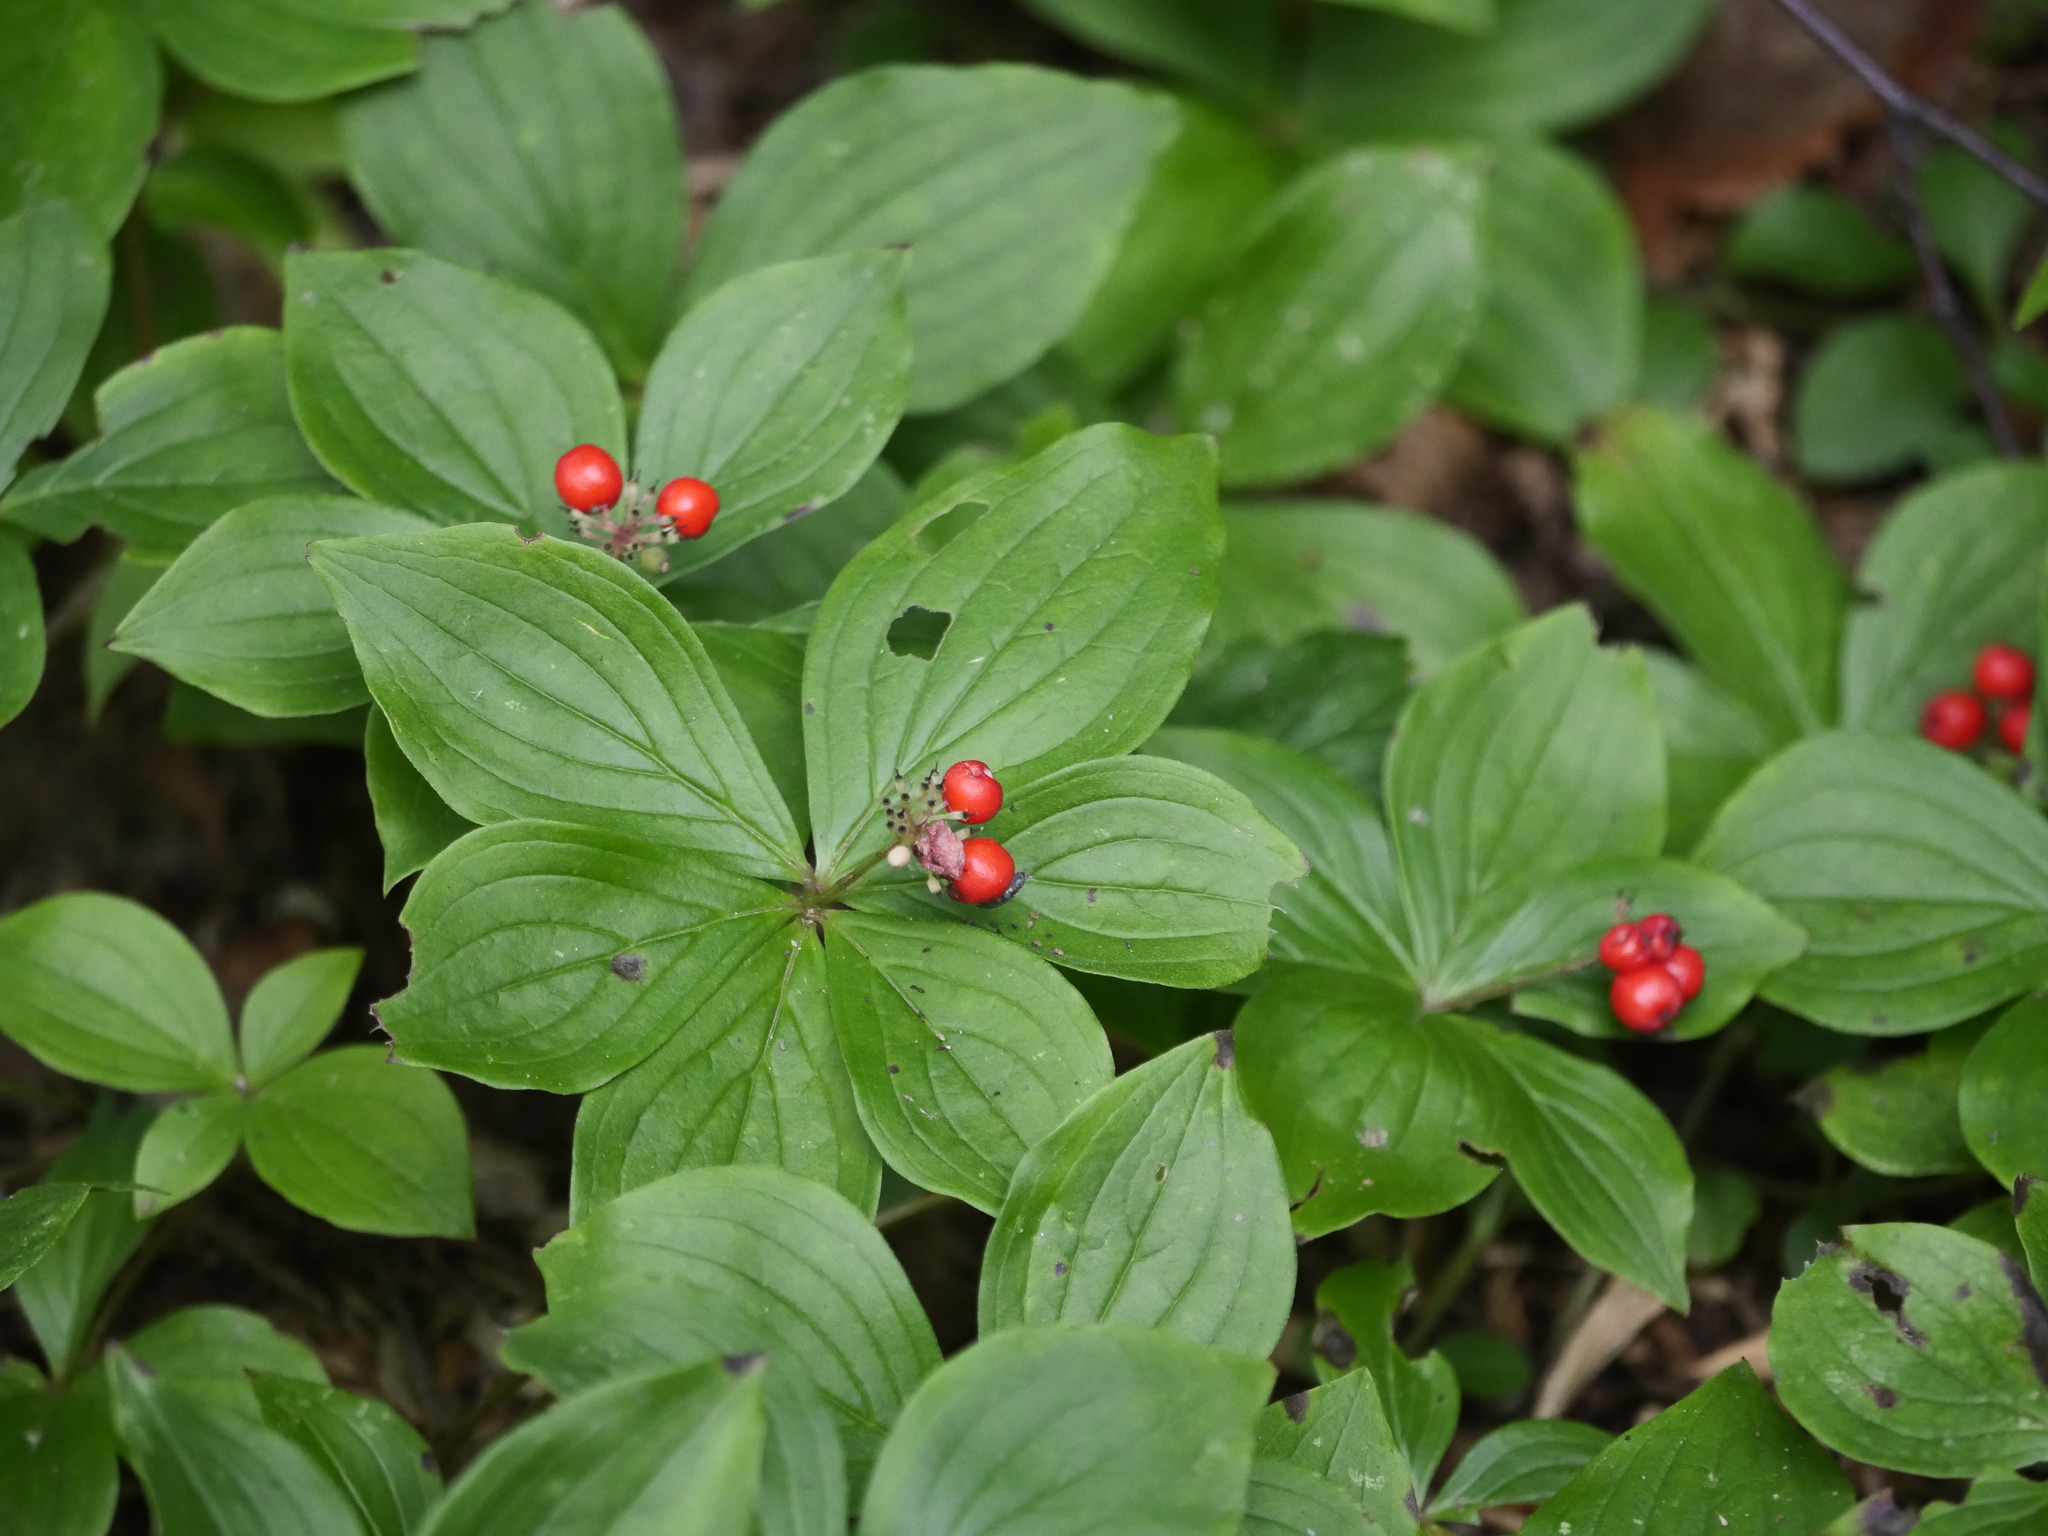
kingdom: Plantae
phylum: Tracheophyta
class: Magnoliopsida
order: Cornales
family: Cornaceae
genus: Cornus
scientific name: Cornus canadensis
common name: Creeping dogwood
